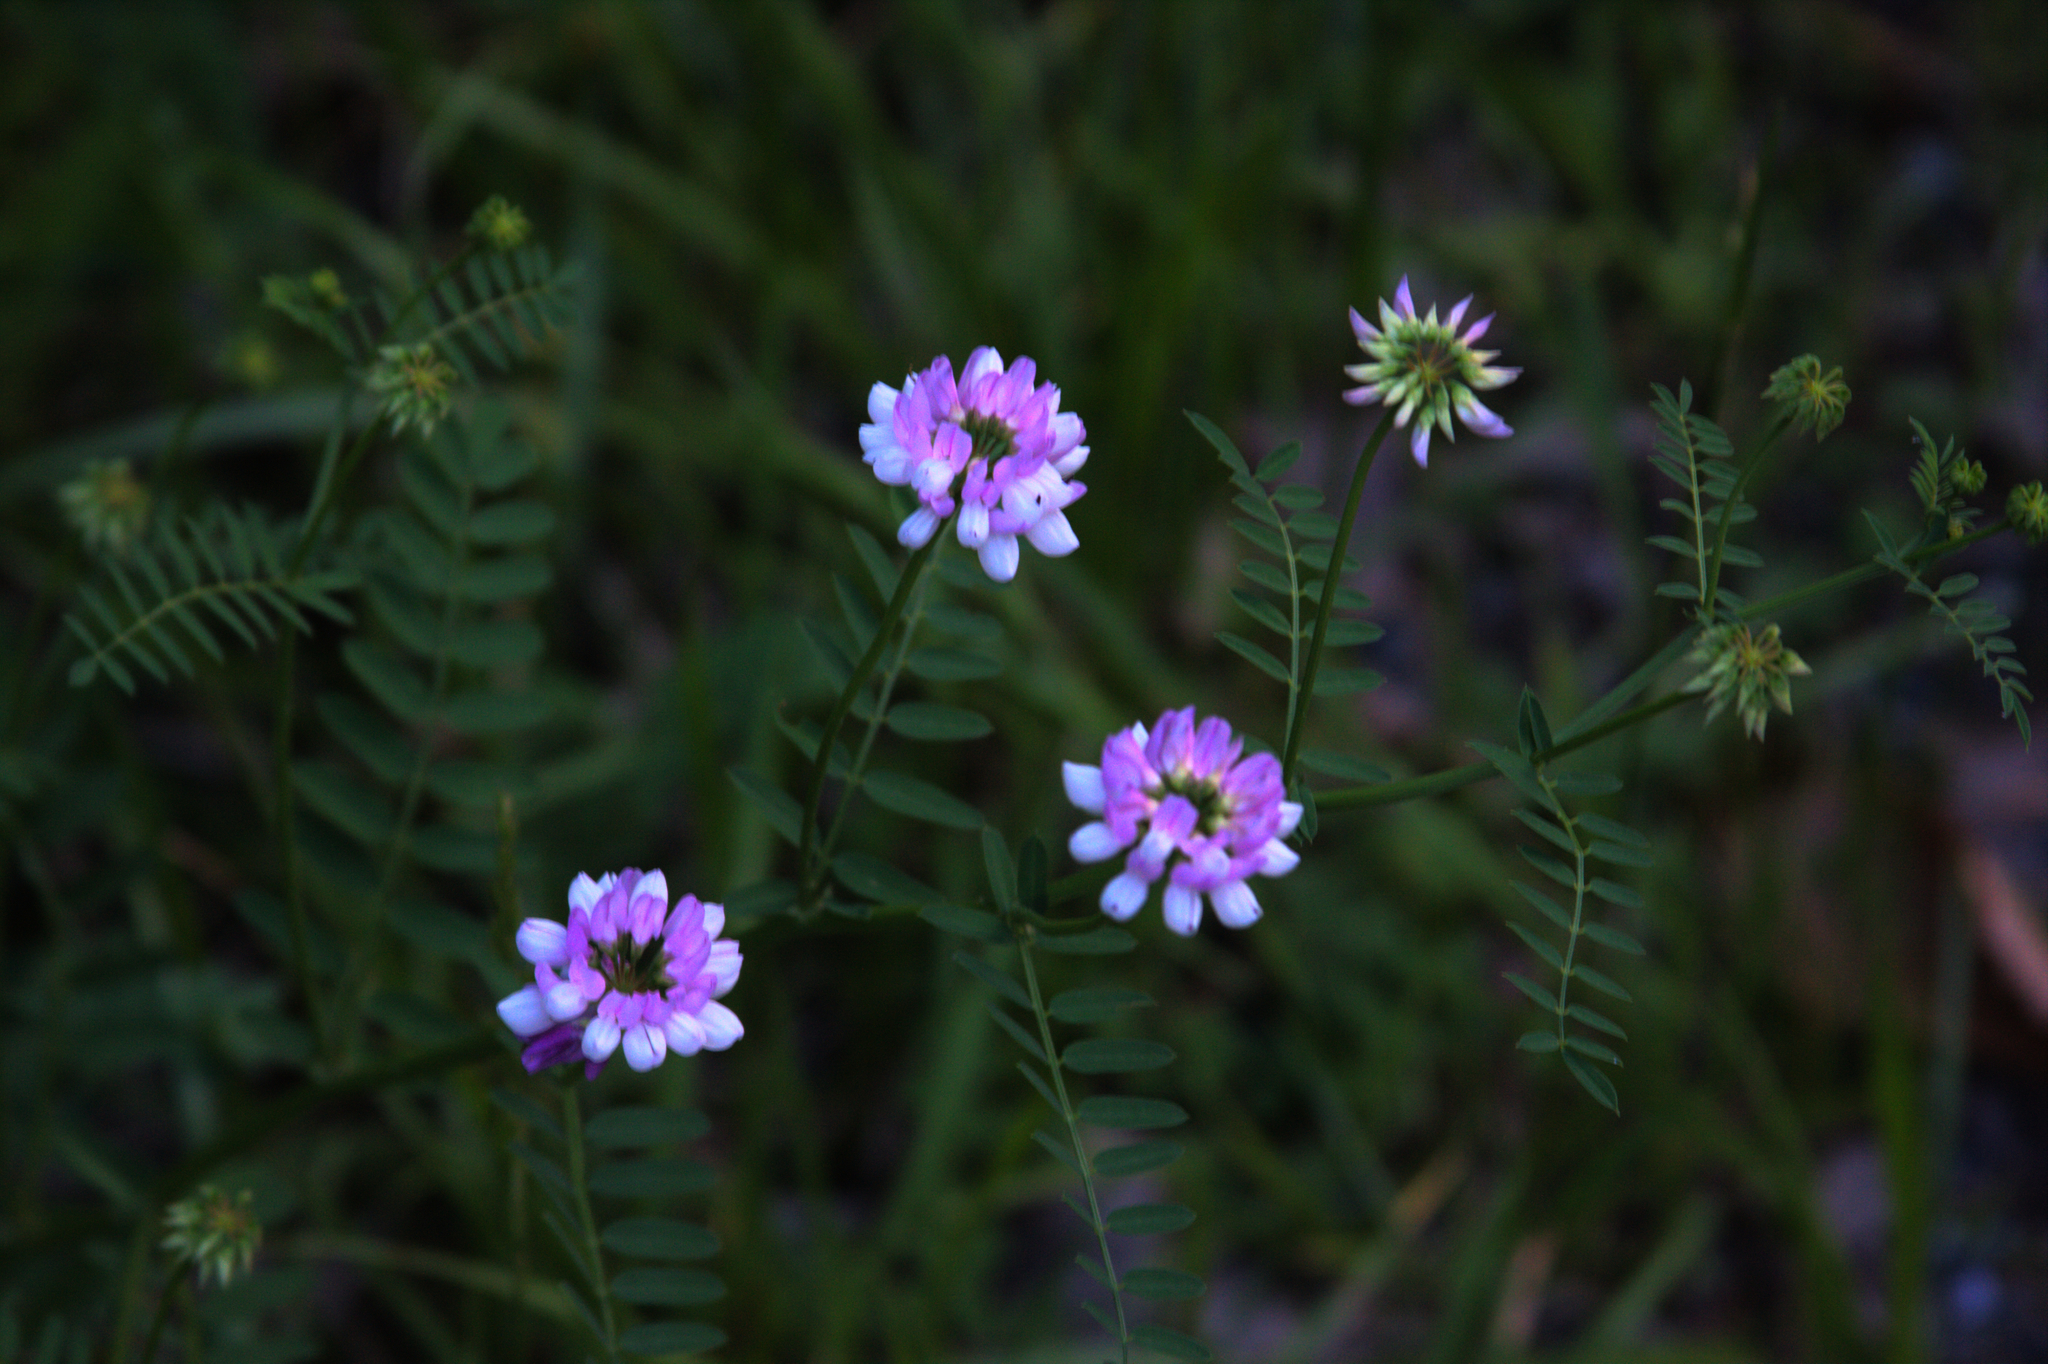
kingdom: Plantae
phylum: Tracheophyta
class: Magnoliopsida
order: Fabales
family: Fabaceae
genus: Coronilla
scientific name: Coronilla varia
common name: Crownvetch
